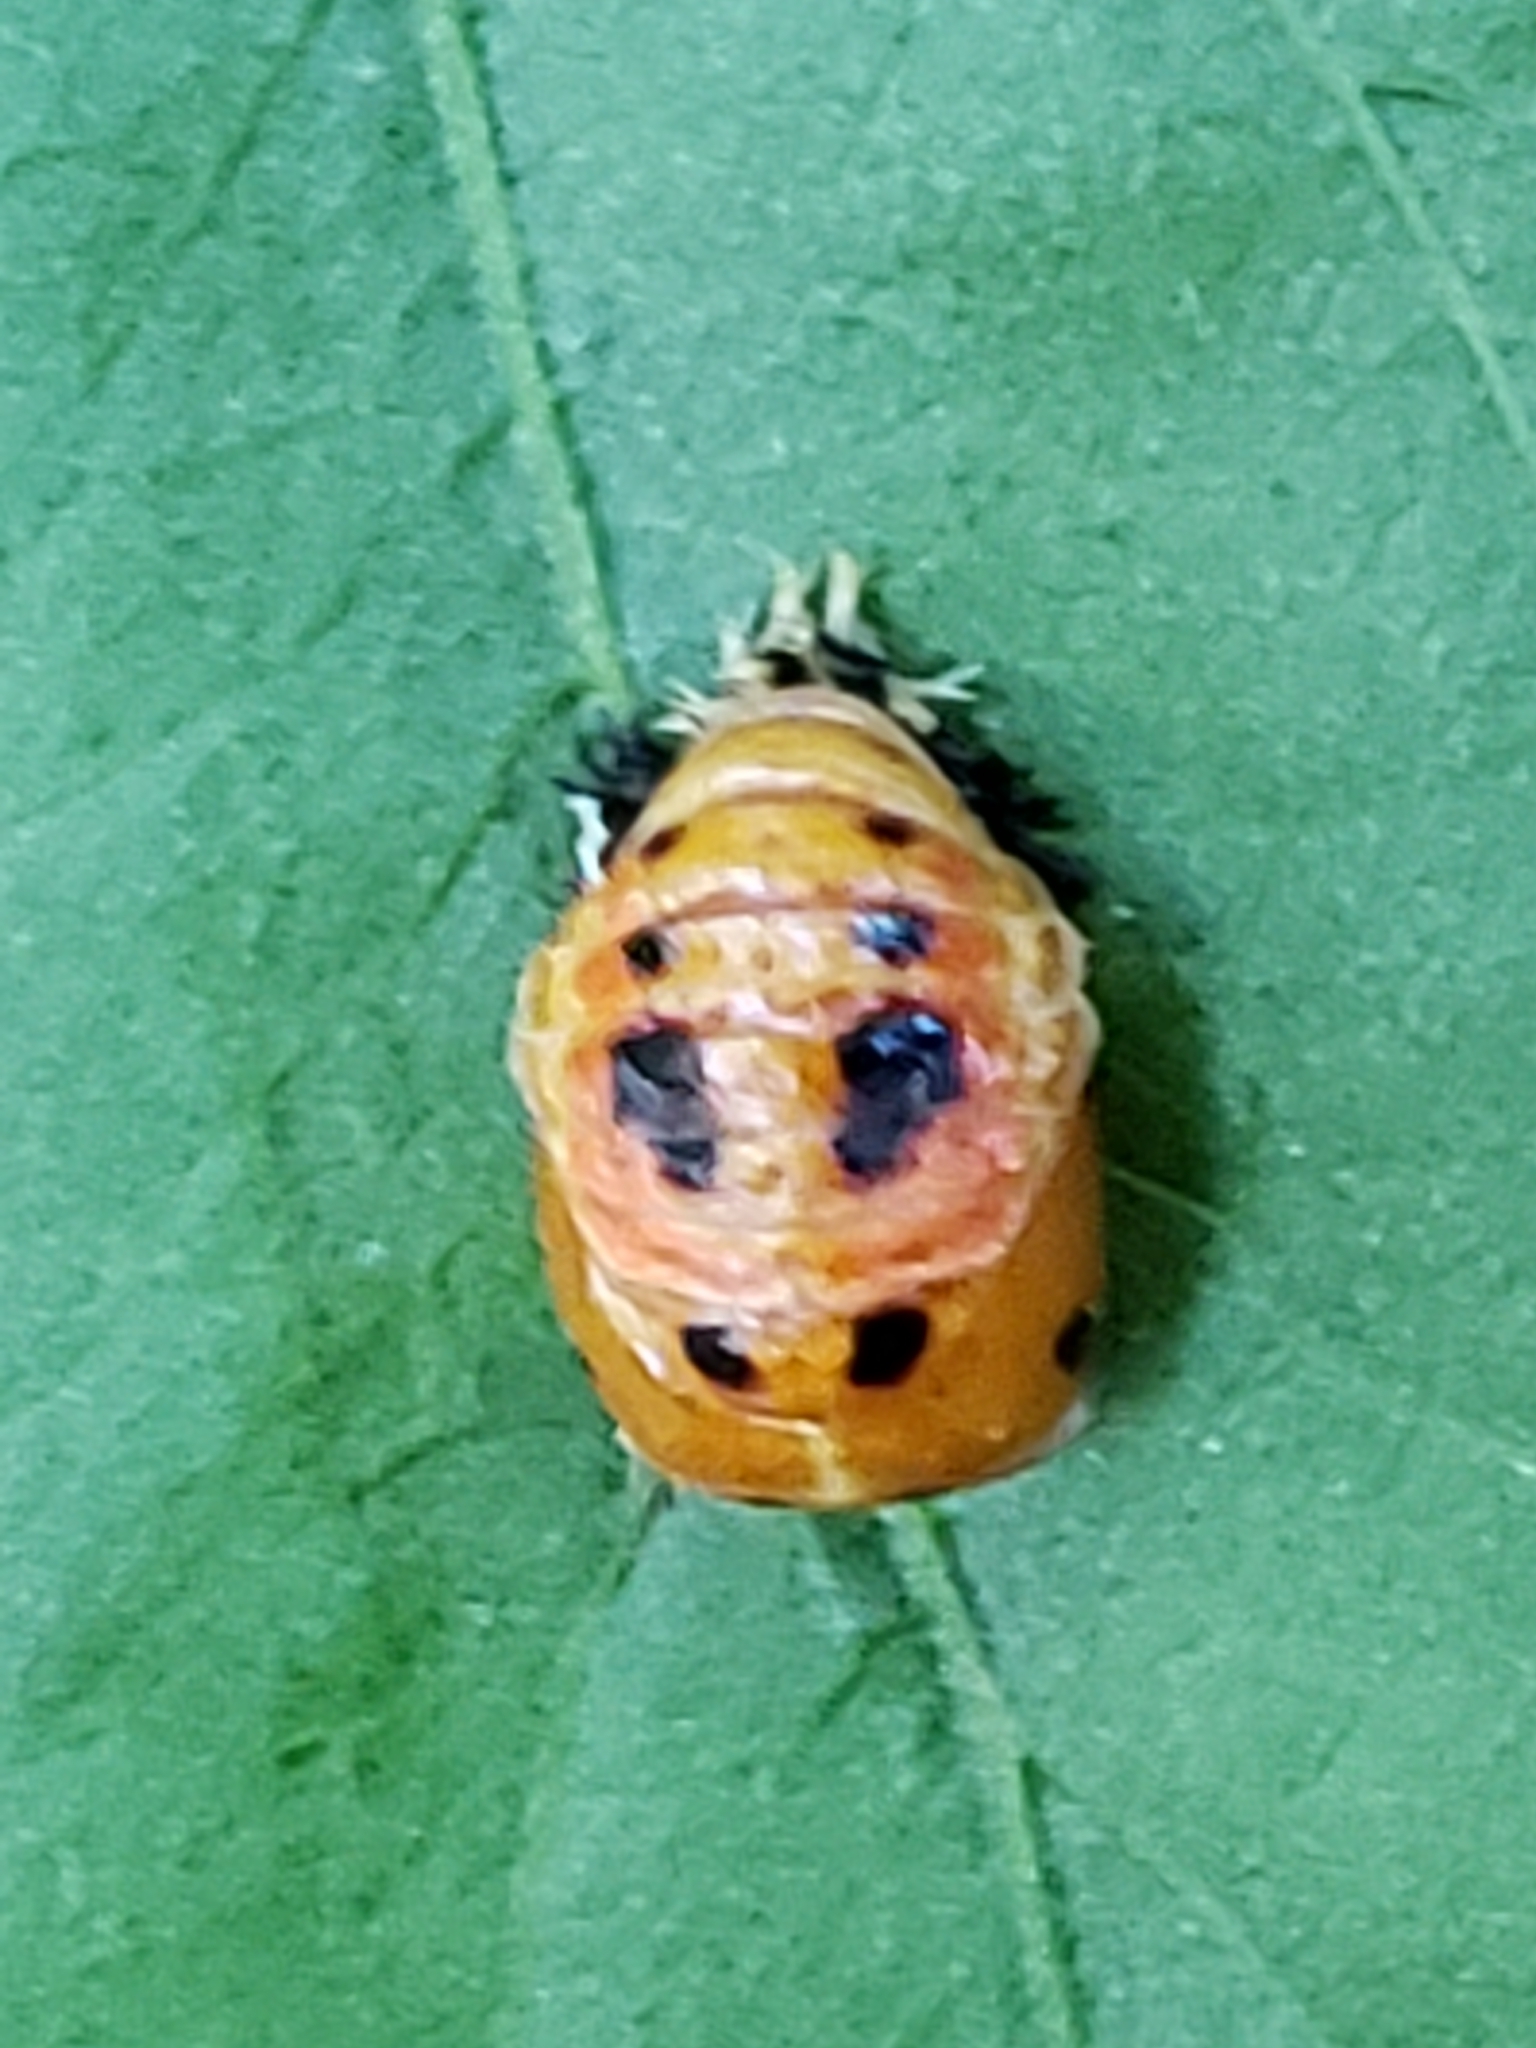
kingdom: Animalia
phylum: Arthropoda
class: Insecta
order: Coleoptera
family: Coccinellidae
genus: Harmonia
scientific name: Harmonia axyridis
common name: Harlequin ladybird
